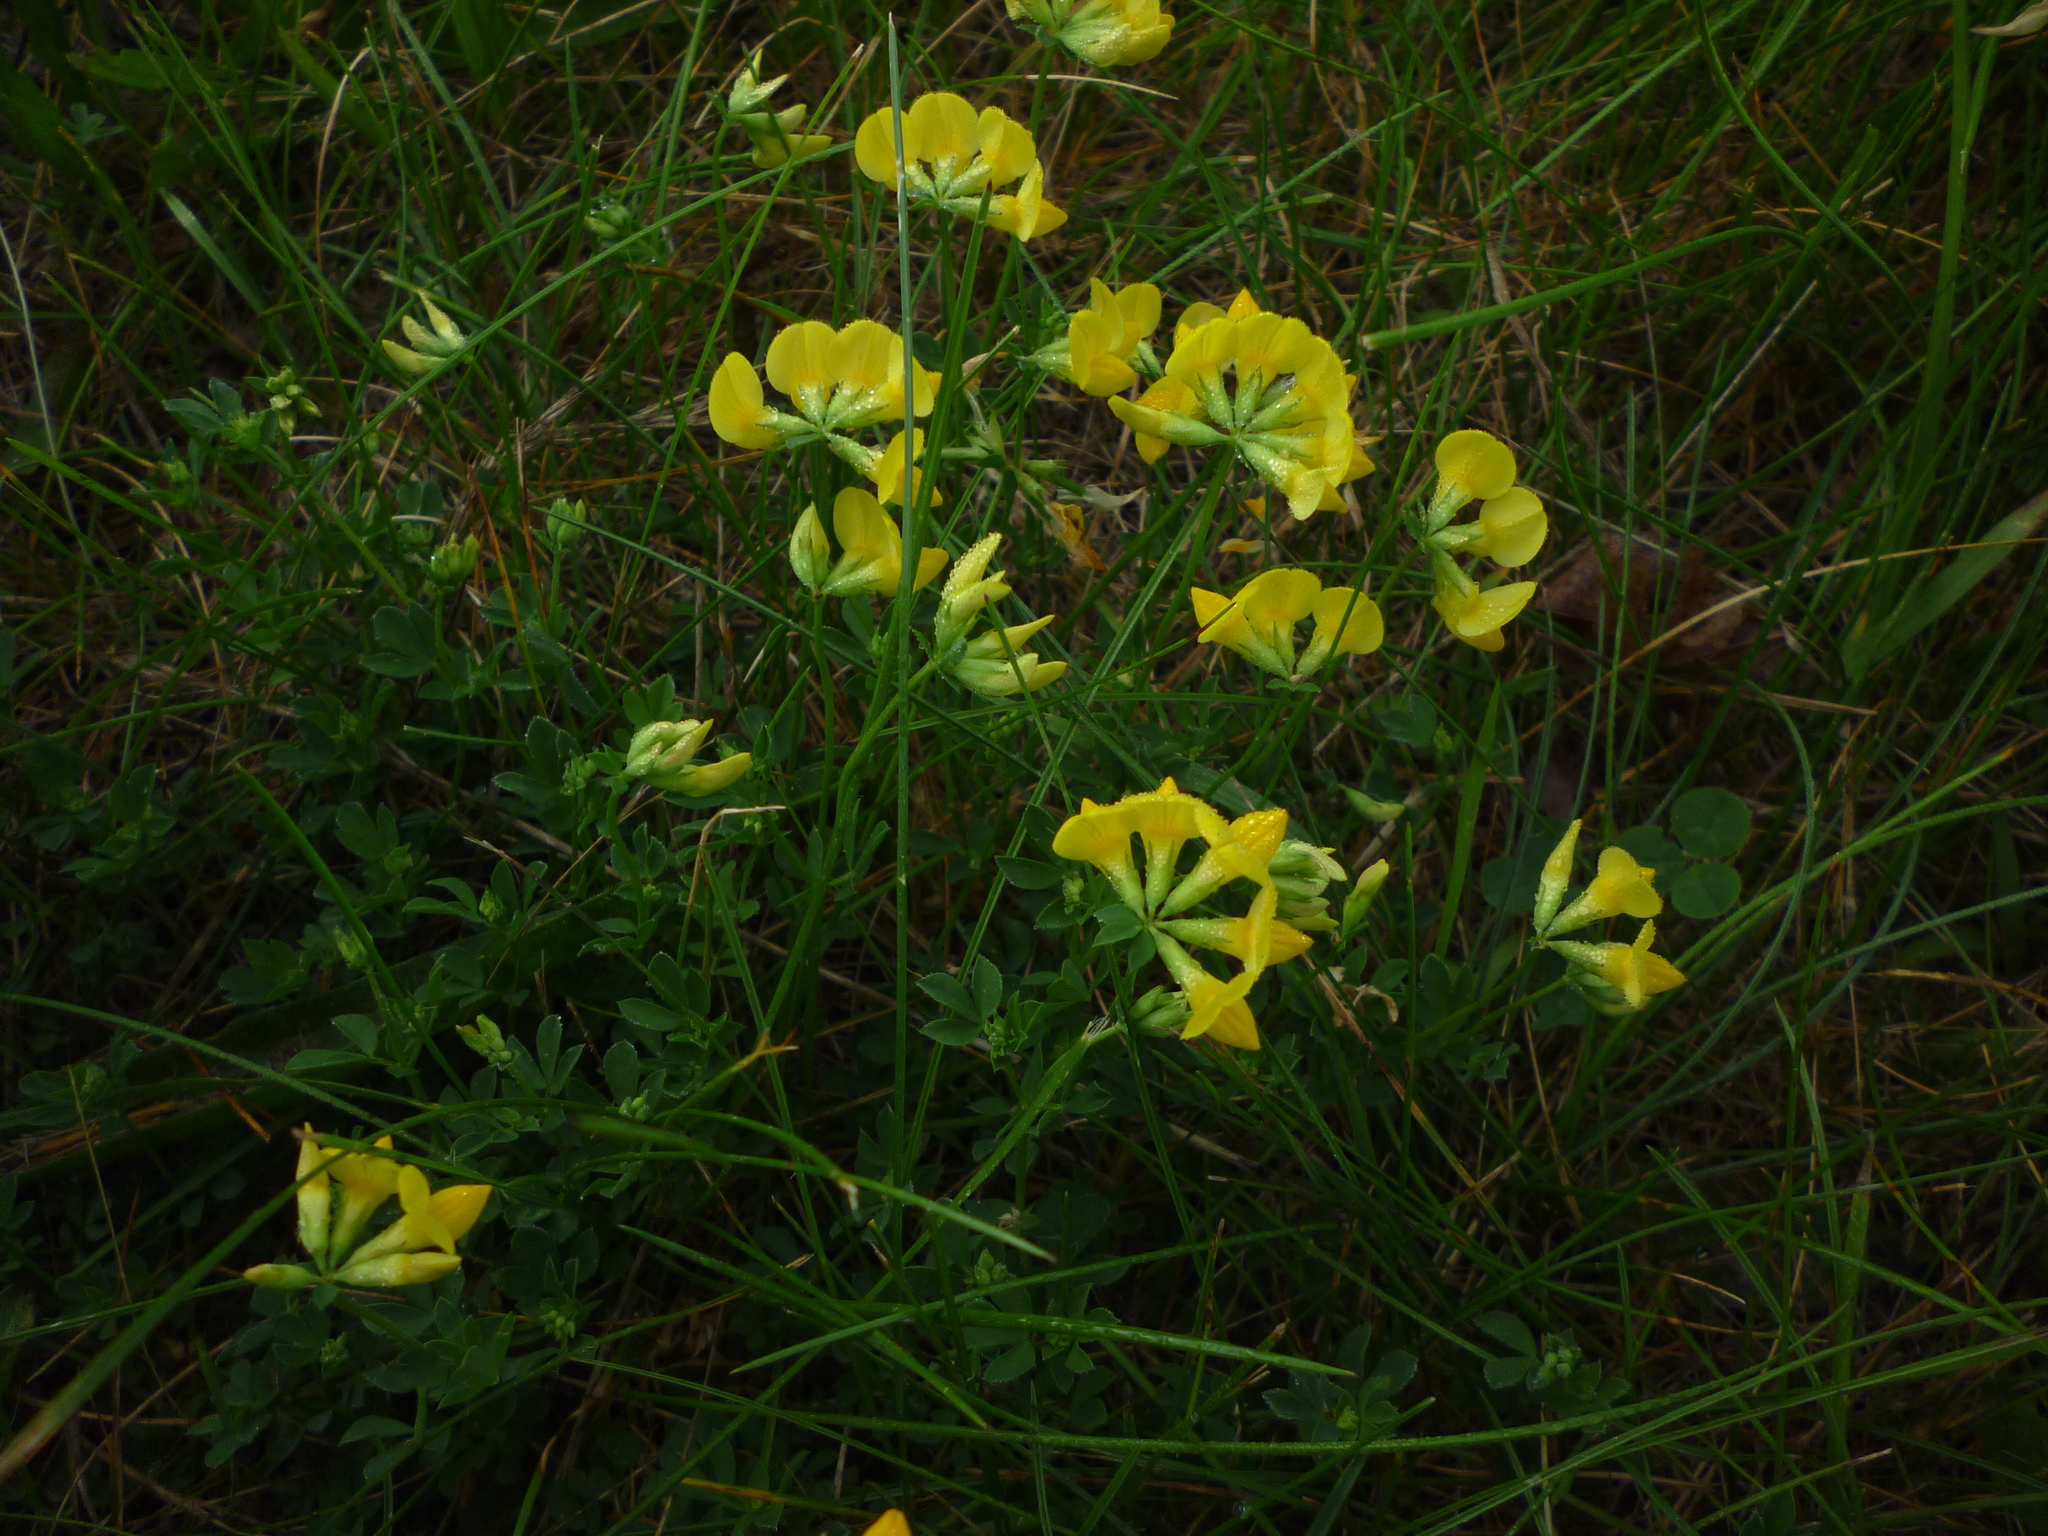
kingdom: Plantae
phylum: Tracheophyta
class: Magnoliopsida
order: Fabales
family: Fabaceae
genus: Lotus
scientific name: Lotus corniculatus
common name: Common bird's-foot-trefoil
